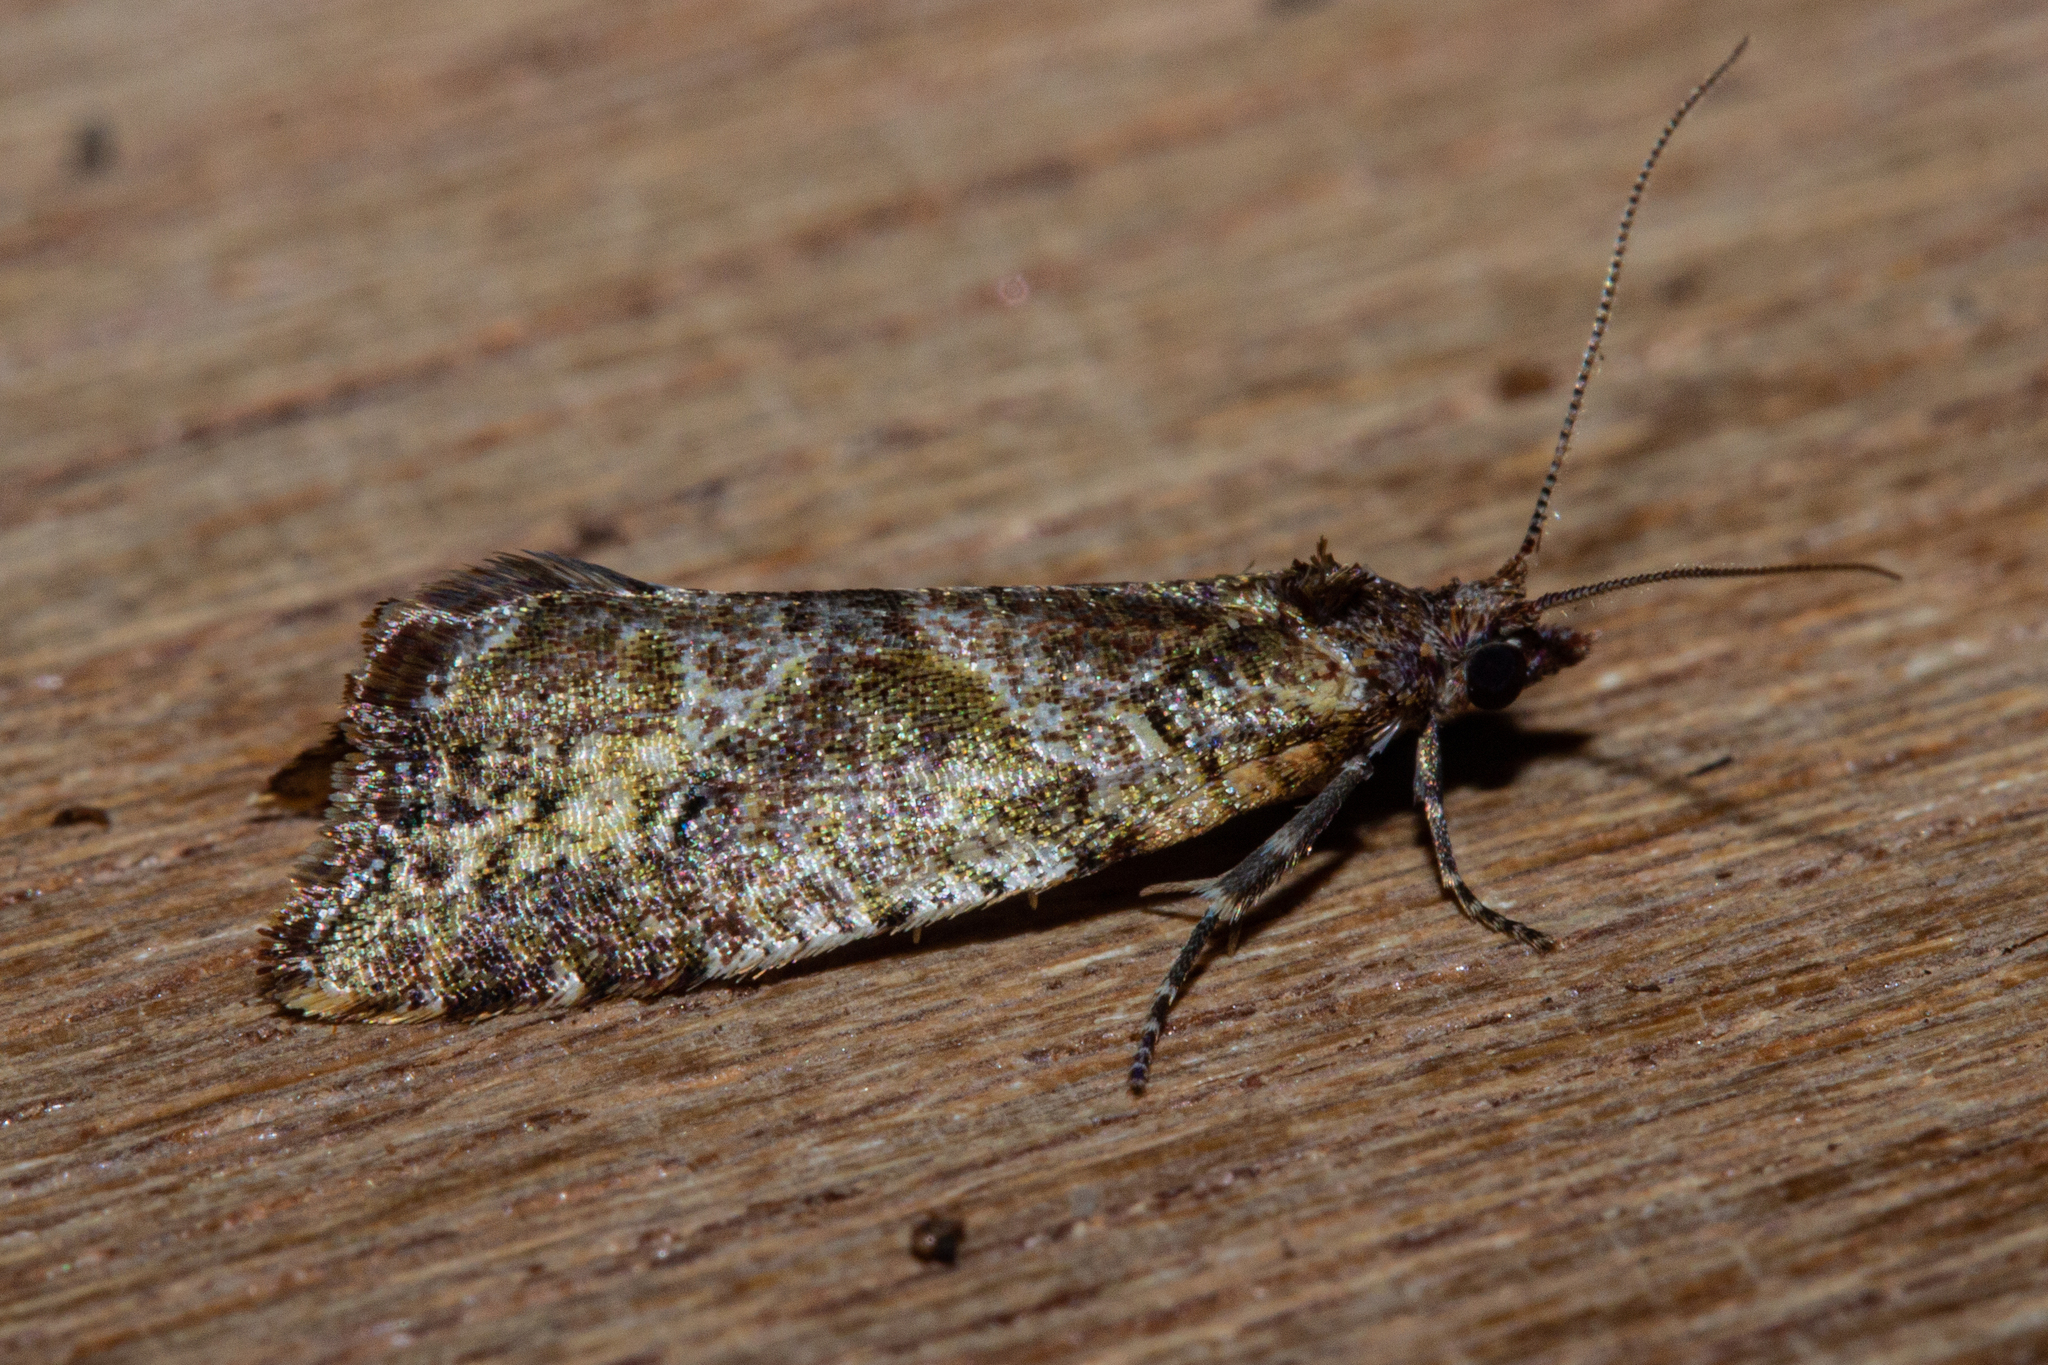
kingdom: Animalia
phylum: Arthropoda
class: Insecta
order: Lepidoptera
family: Tortricidae
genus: Pyrgotis
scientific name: Pyrgotis plagiatana
